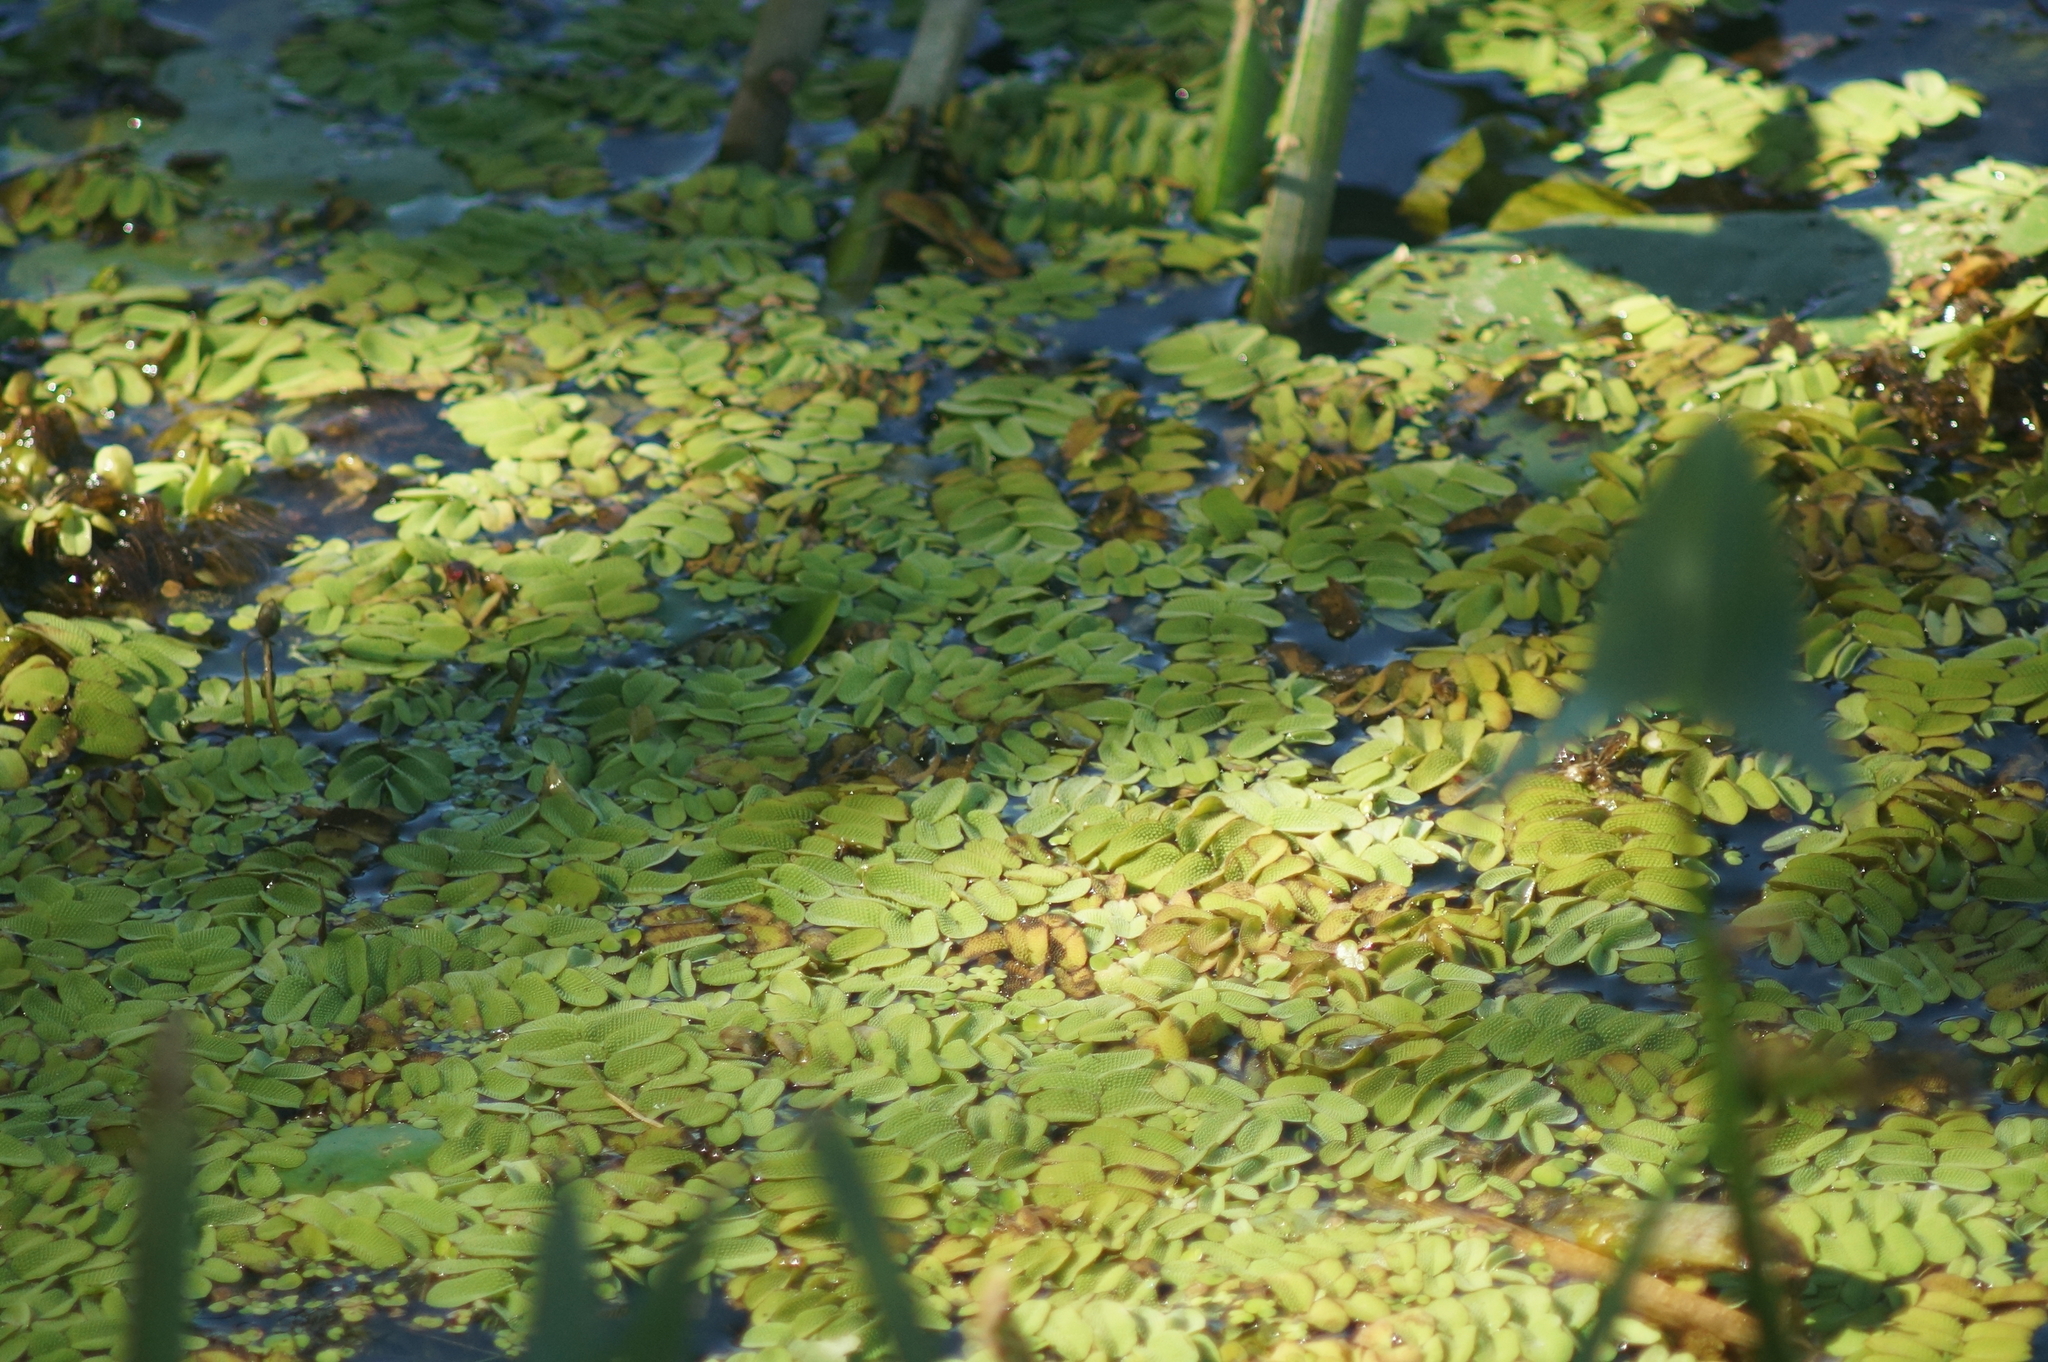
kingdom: Plantae
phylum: Tracheophyta
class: Polypodiopsida
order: Salviniales
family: Salviniaceae
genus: Salvinia
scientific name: Salvinia natans
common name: Floating fern
